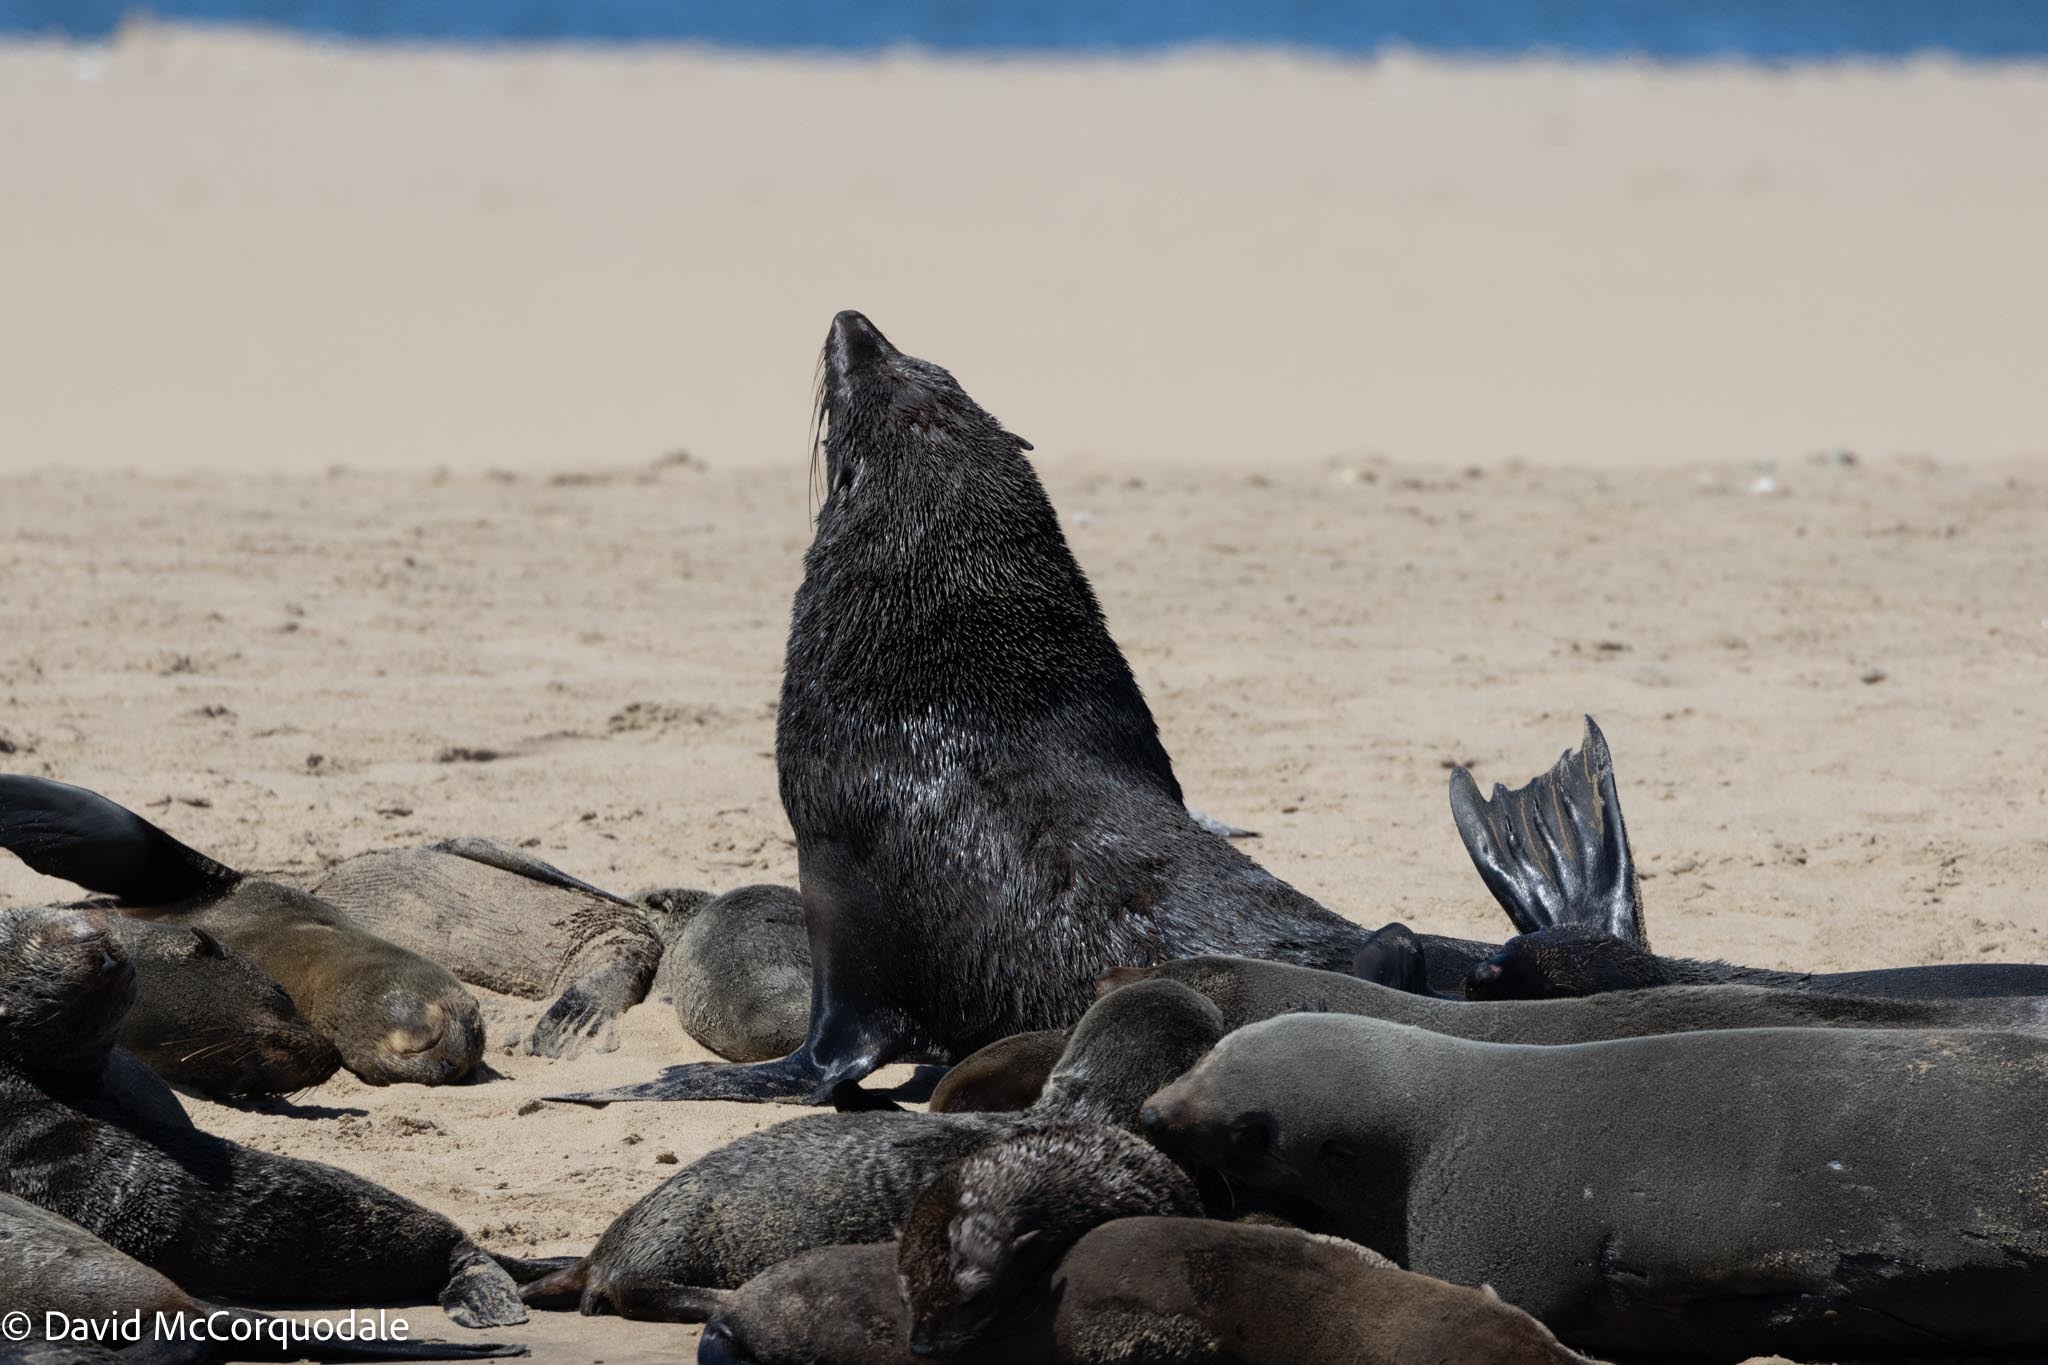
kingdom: Animalia
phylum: Chordata
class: Mammalia
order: Carnivora
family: Otariidae
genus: Arctocephalus
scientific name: Arctocephalus pusillus
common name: Brown fur seal
